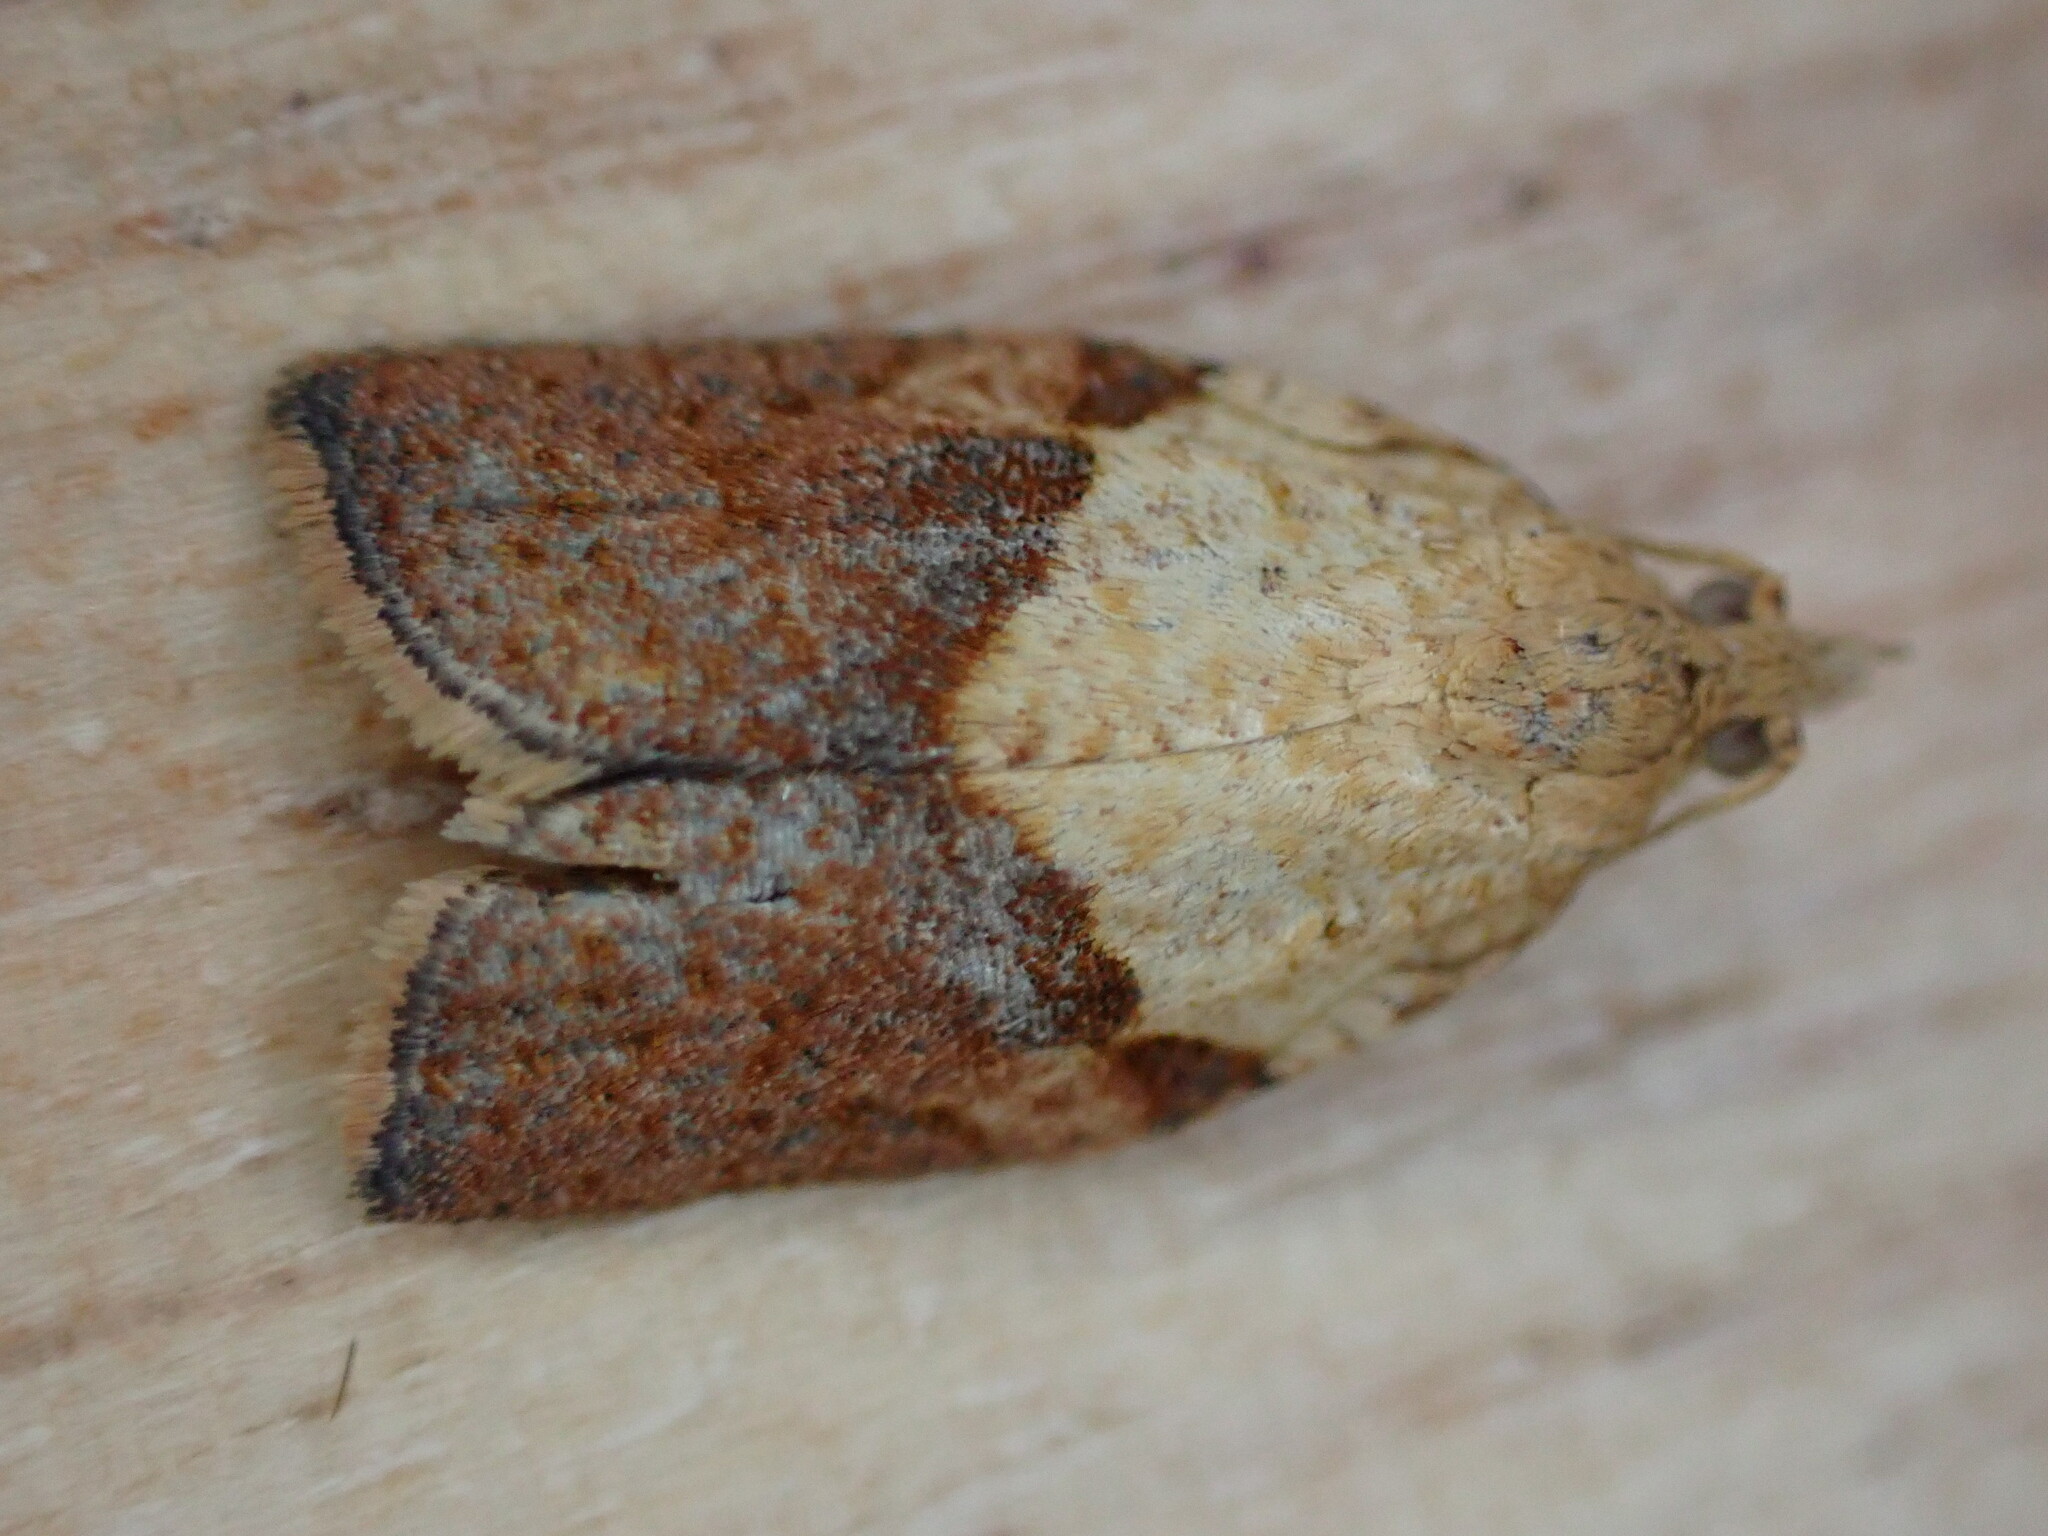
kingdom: Animalia
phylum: Arthropoda
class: Insecta
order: Lepidoptera
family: Tortricidae
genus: Epiphyas
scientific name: Epiphyas postvittana
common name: Light brown apple moth
